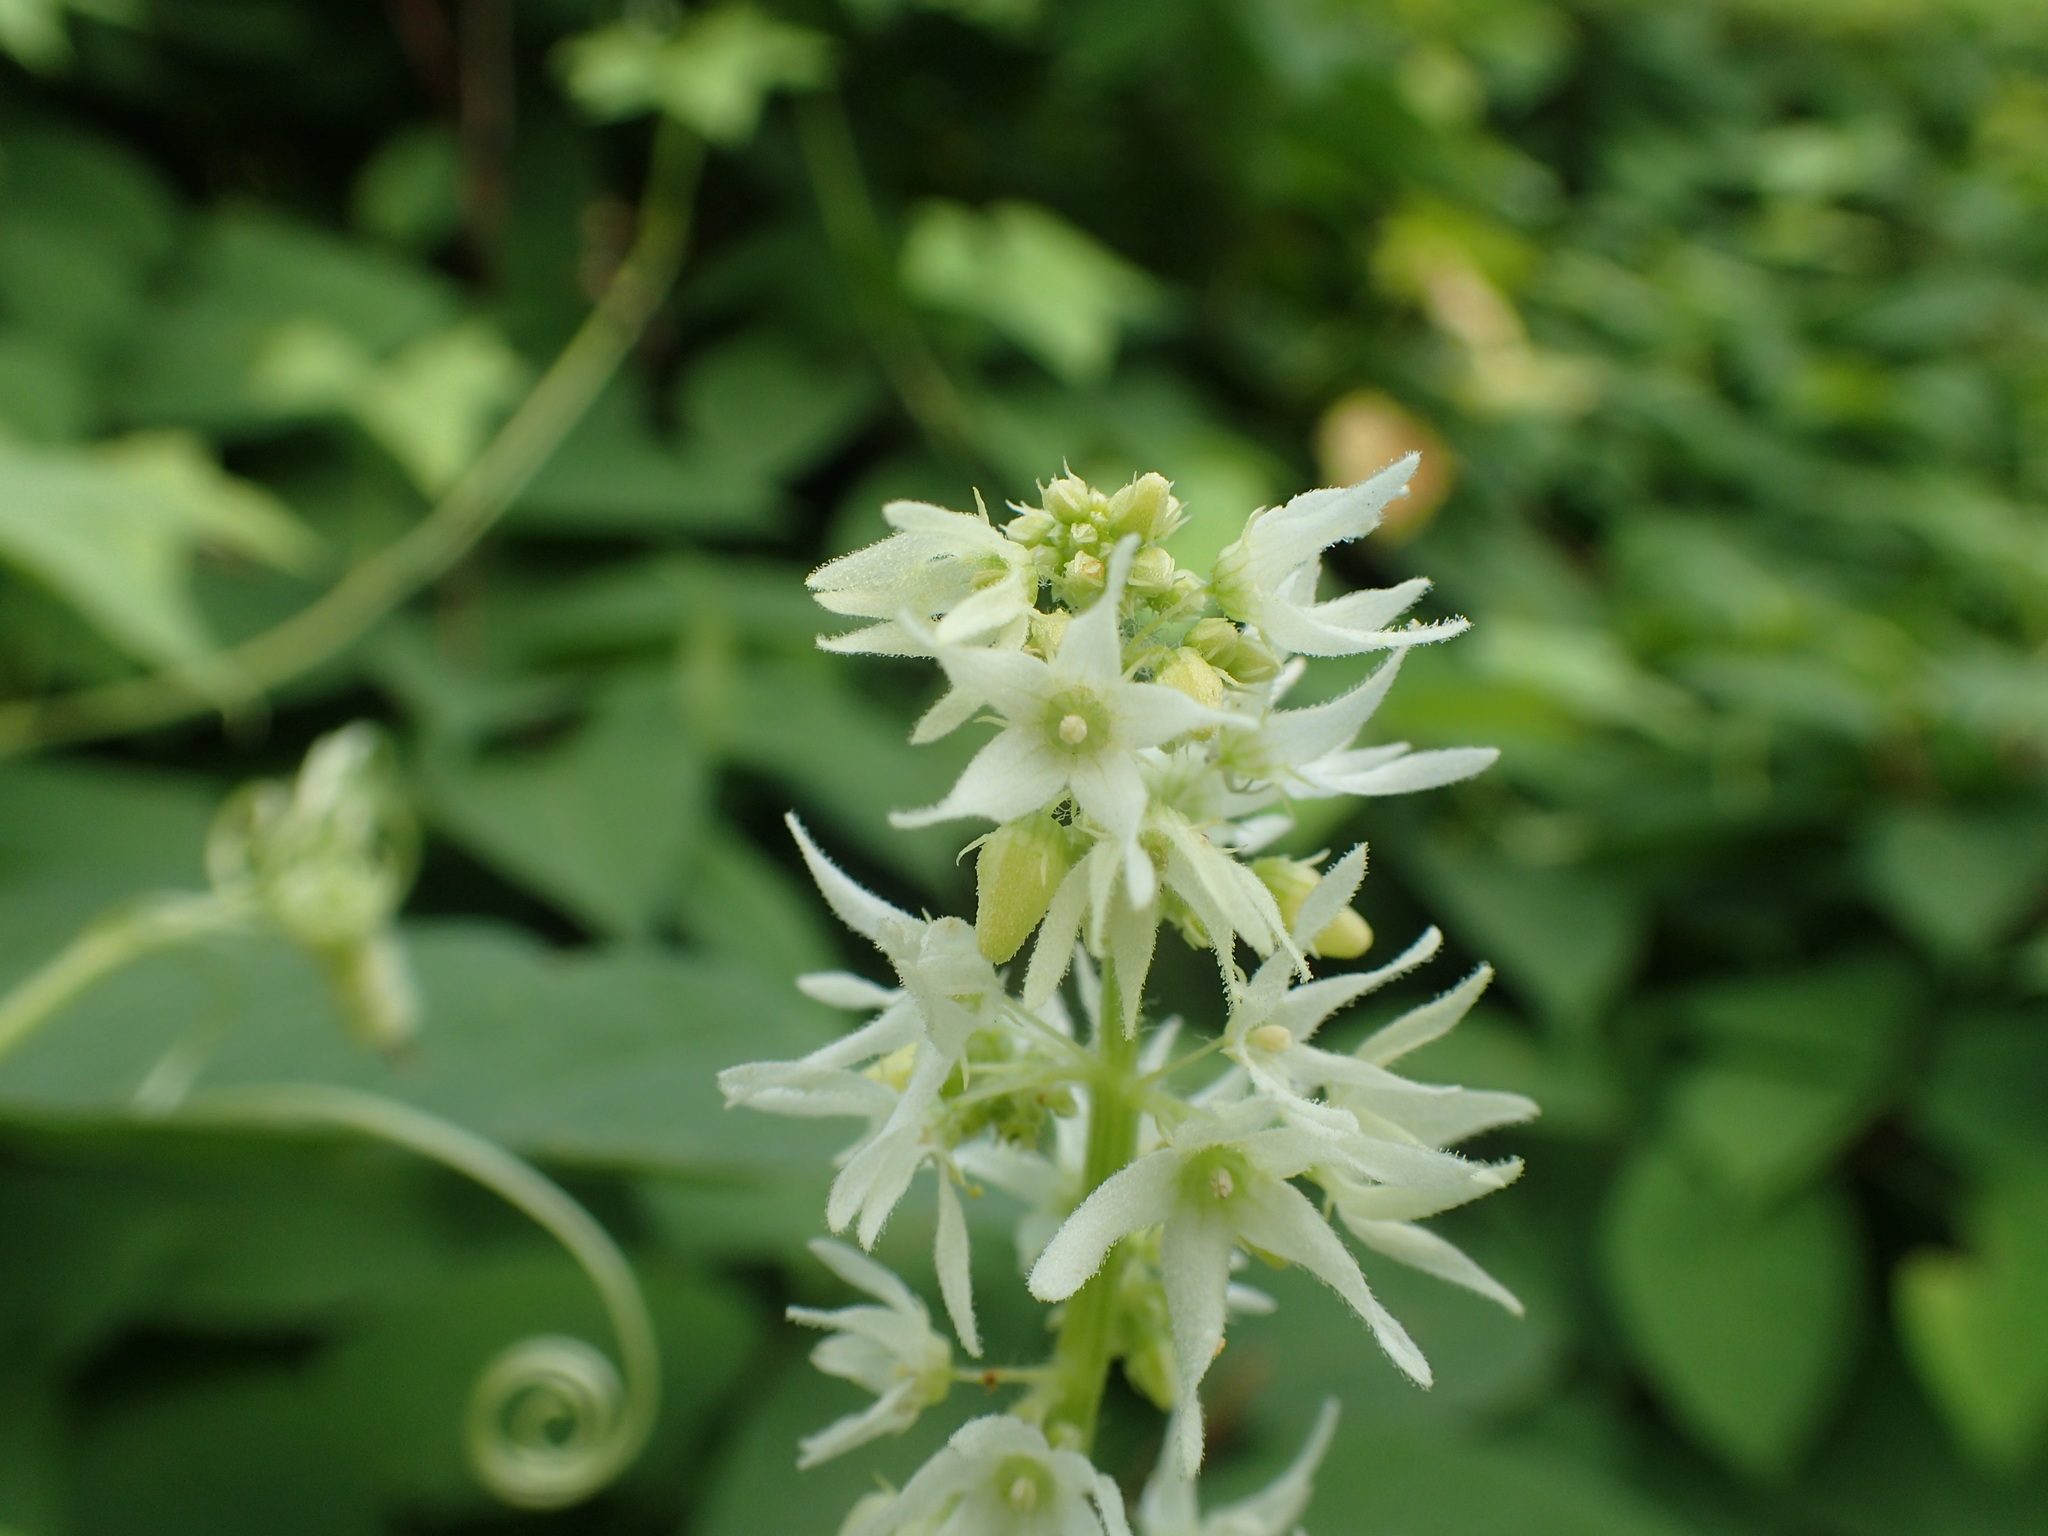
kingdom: Plantae
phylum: Tracheophyta
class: Magnoliopsida
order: Cucurbitales
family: Cucurbitaceae
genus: Echinocystis
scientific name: Echinocystis lobata
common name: Wild cucumber
